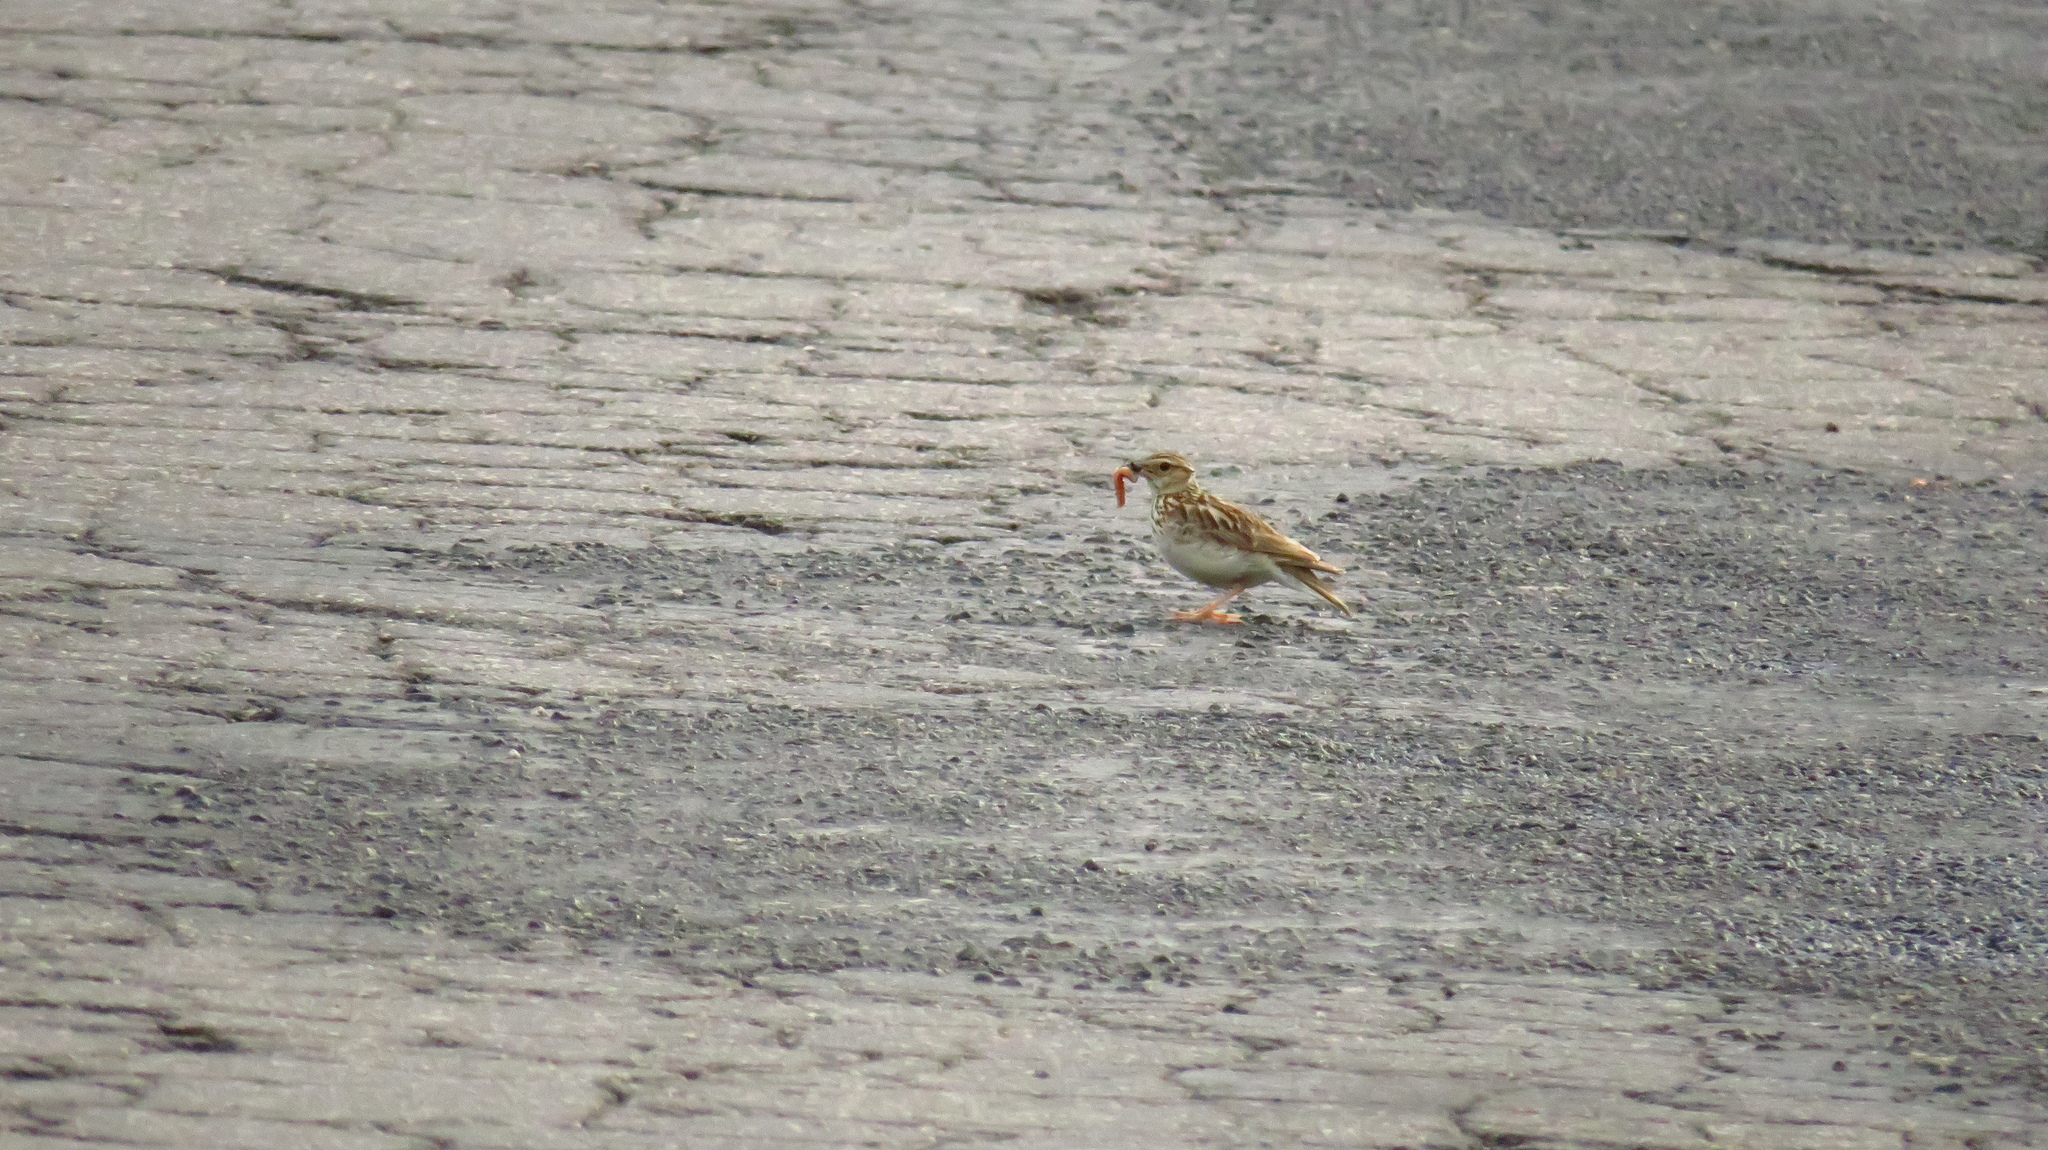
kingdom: Animalia
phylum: Chordata
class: Aves
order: Passeriformes
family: Alaudidae
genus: Lullula
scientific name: Lullula arborea
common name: Woodlark
